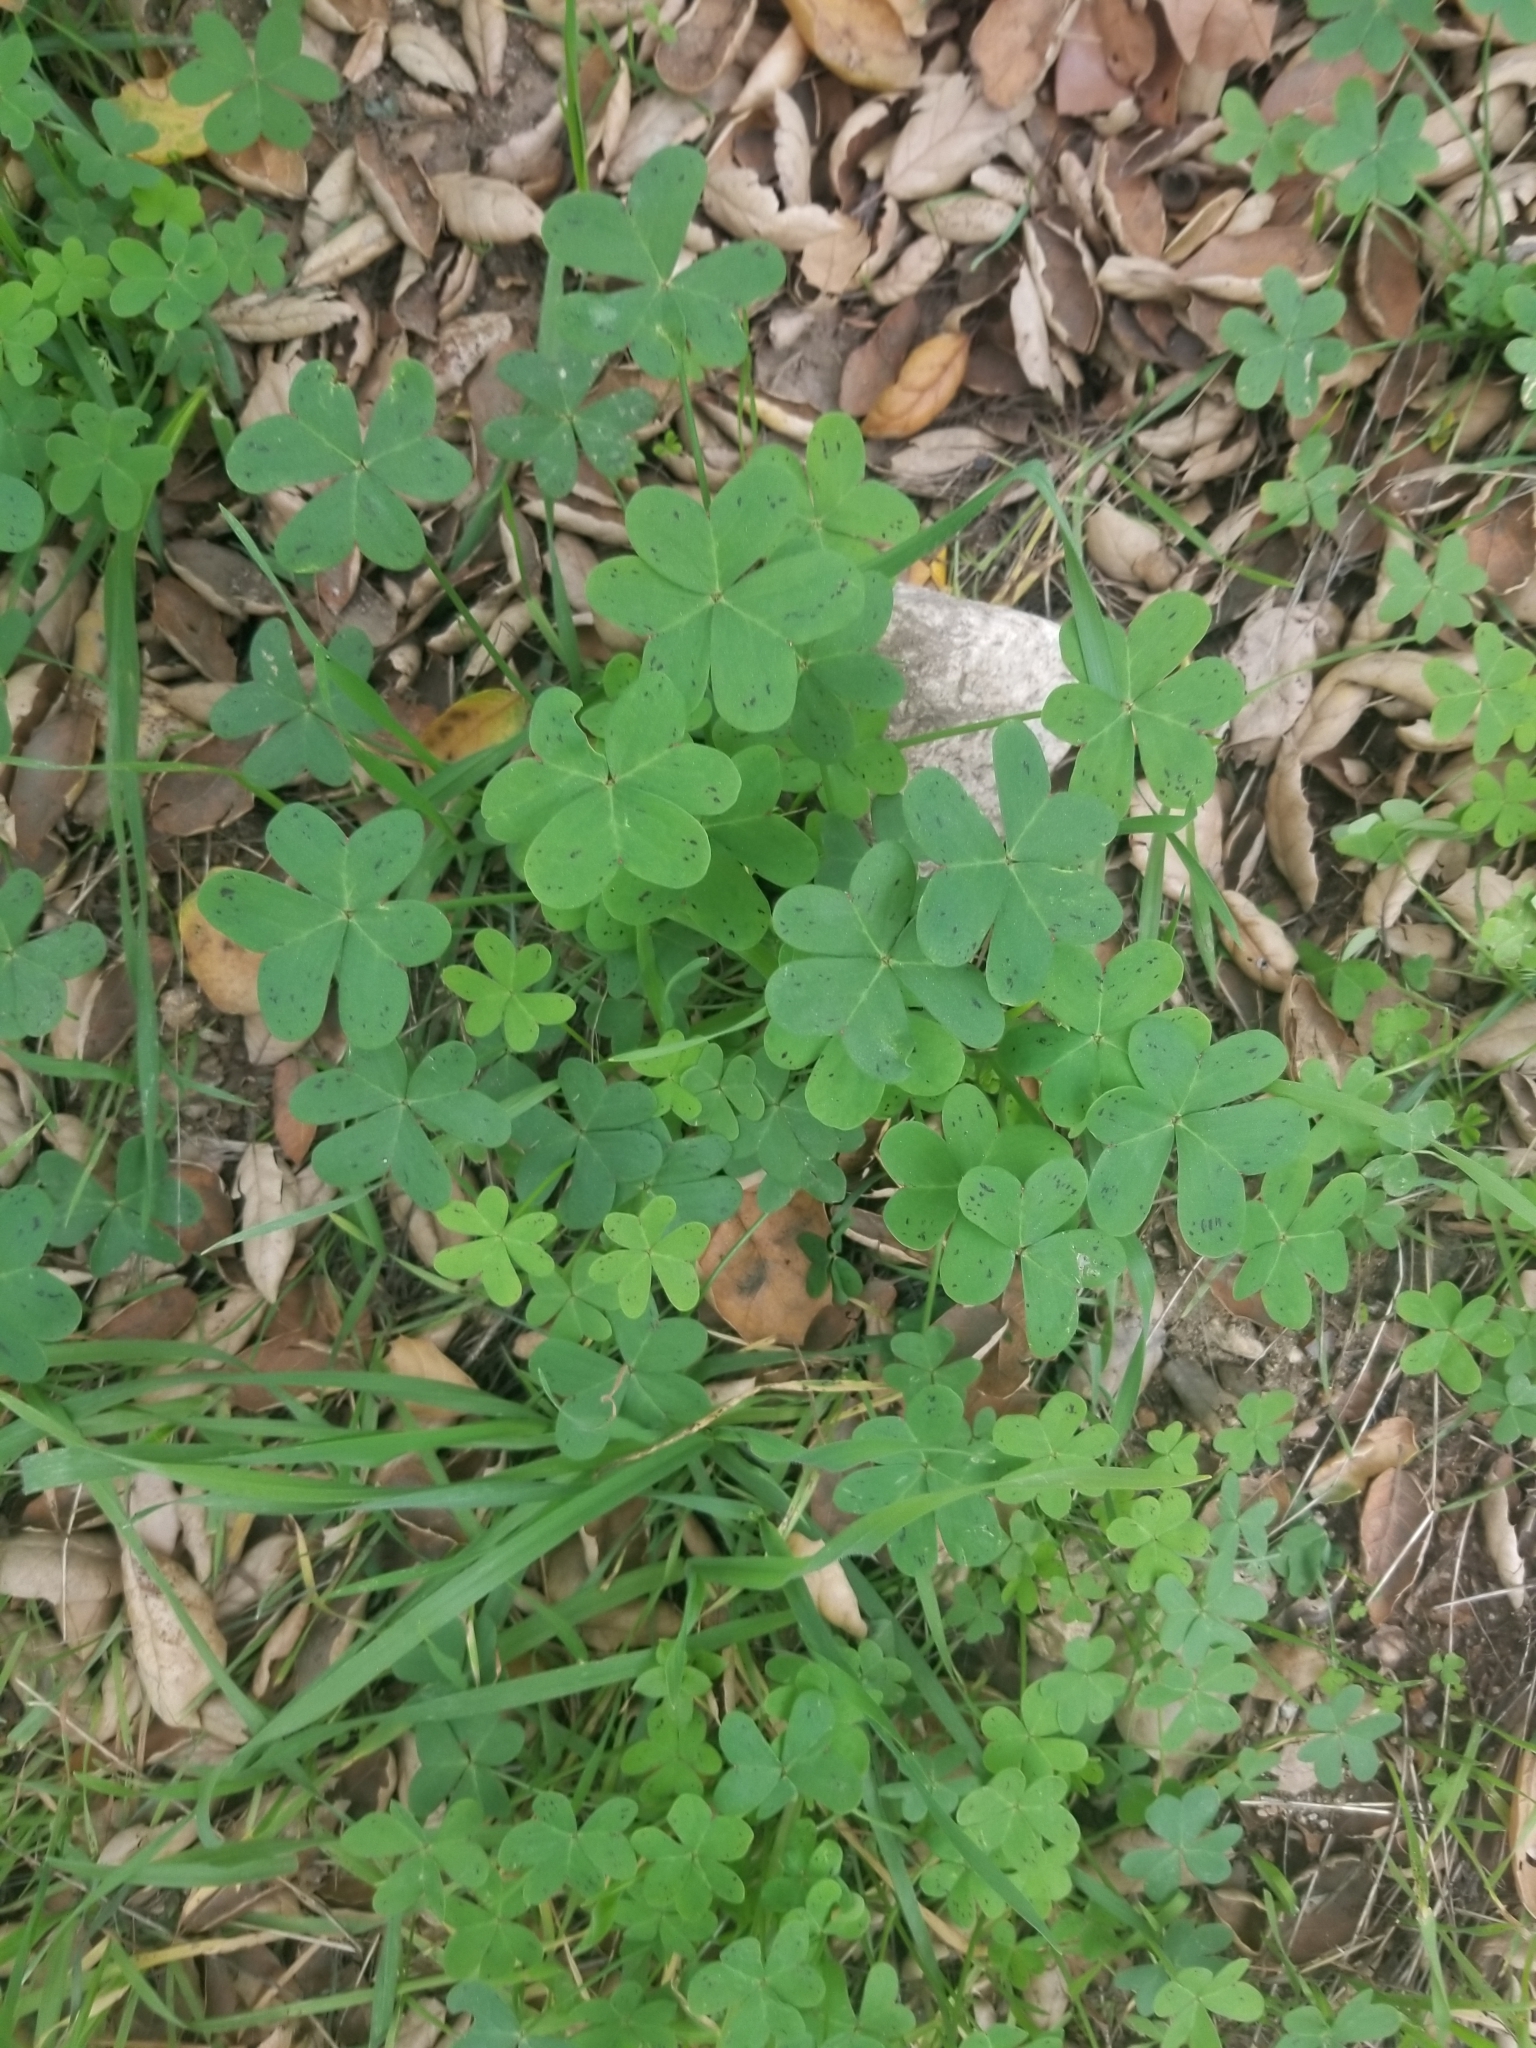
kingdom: Plantae
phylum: Tracheophyta
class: Magnoliopsida
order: Oxalidales
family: Oxalidaceae
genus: Oxalis
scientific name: Oxalis pes-caprae
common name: Bermuda-buttercup
